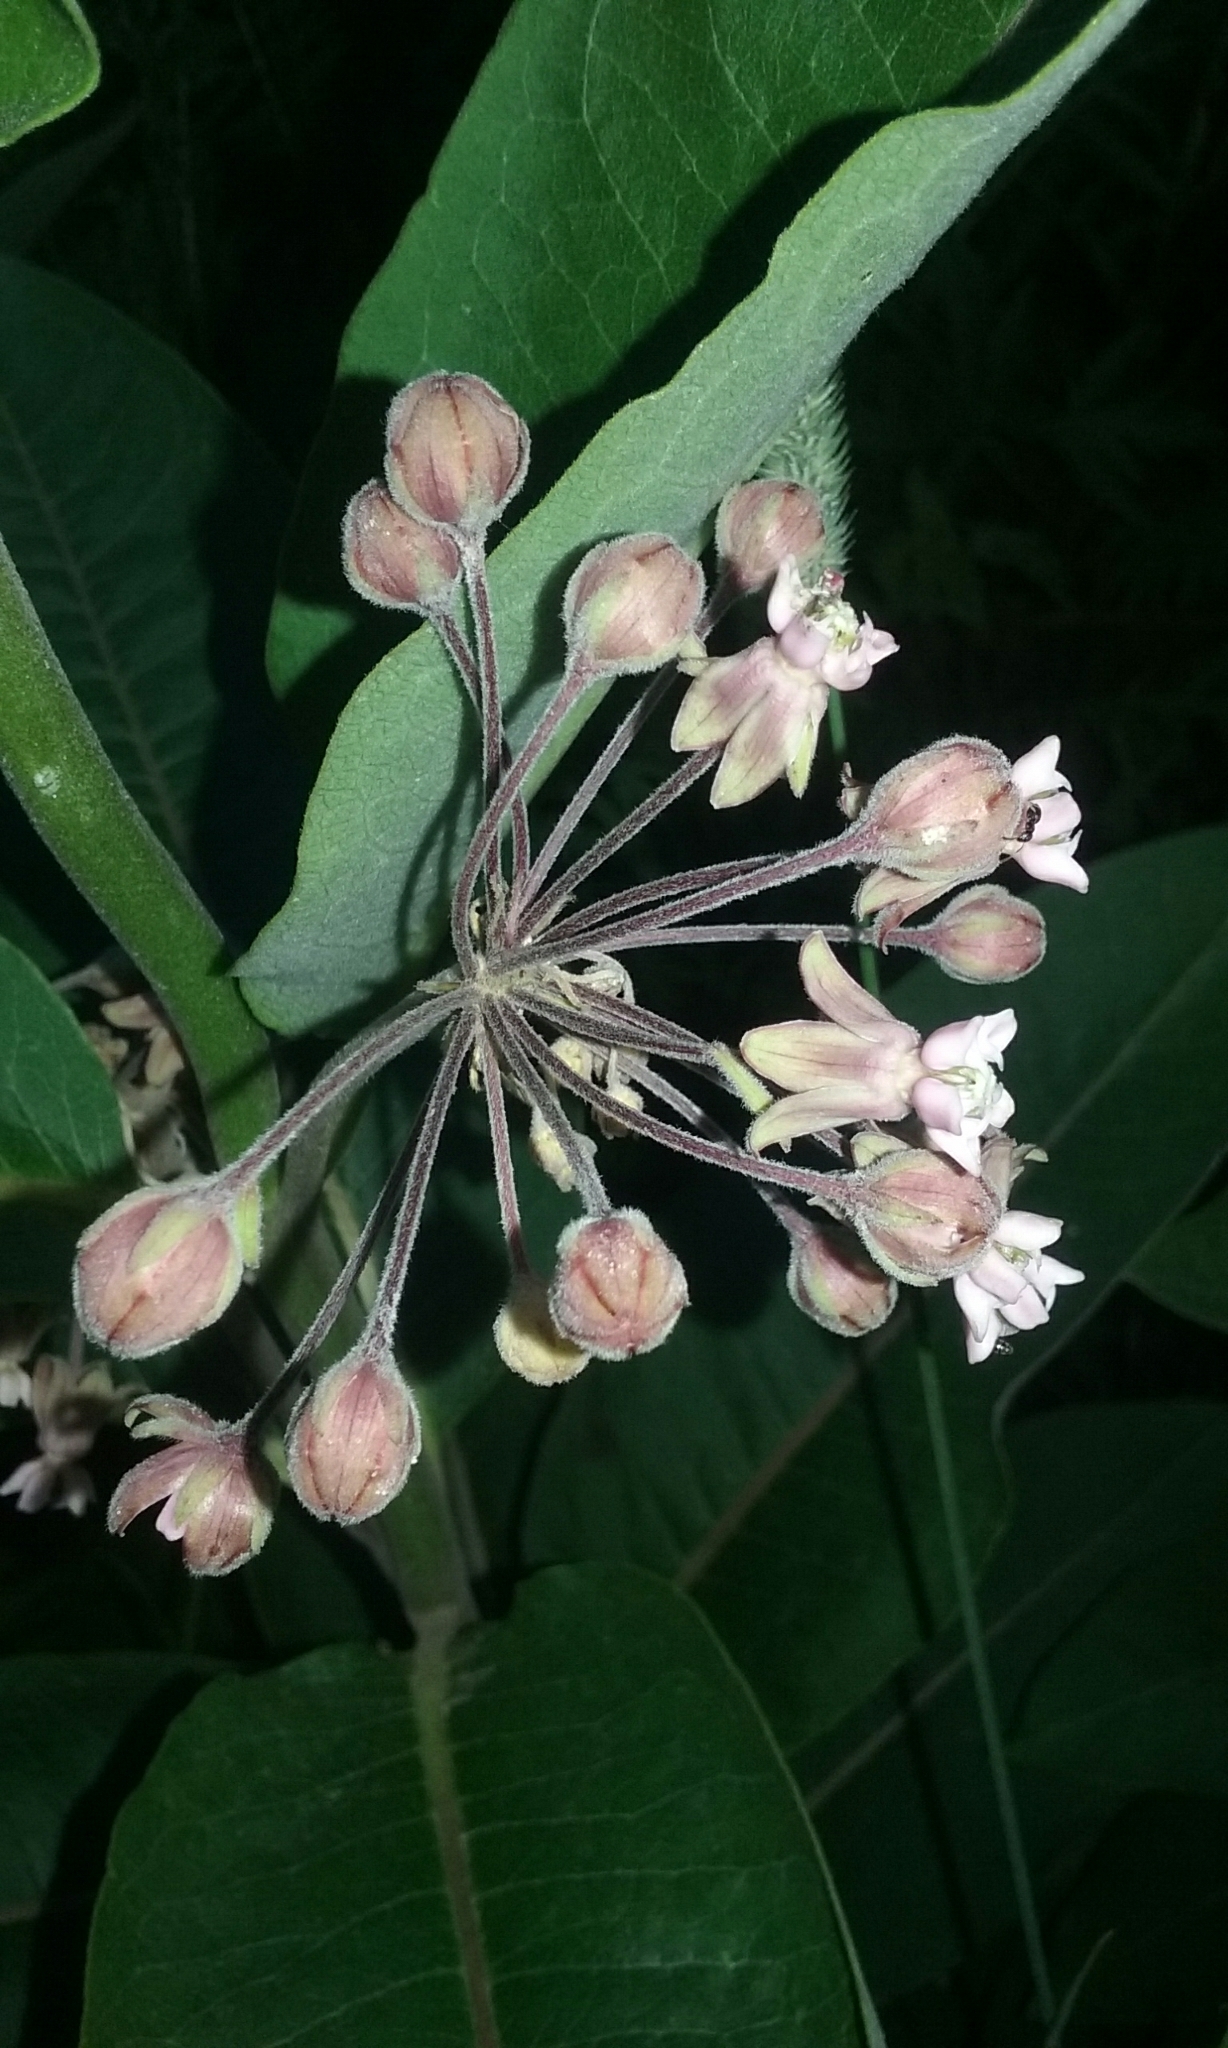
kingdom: Plantae
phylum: Tracheophyta
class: Magnoliopsida
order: Gentianales
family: Apocynaceae
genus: Asclepias
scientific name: Asclepias syriaca
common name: Common milkweed
